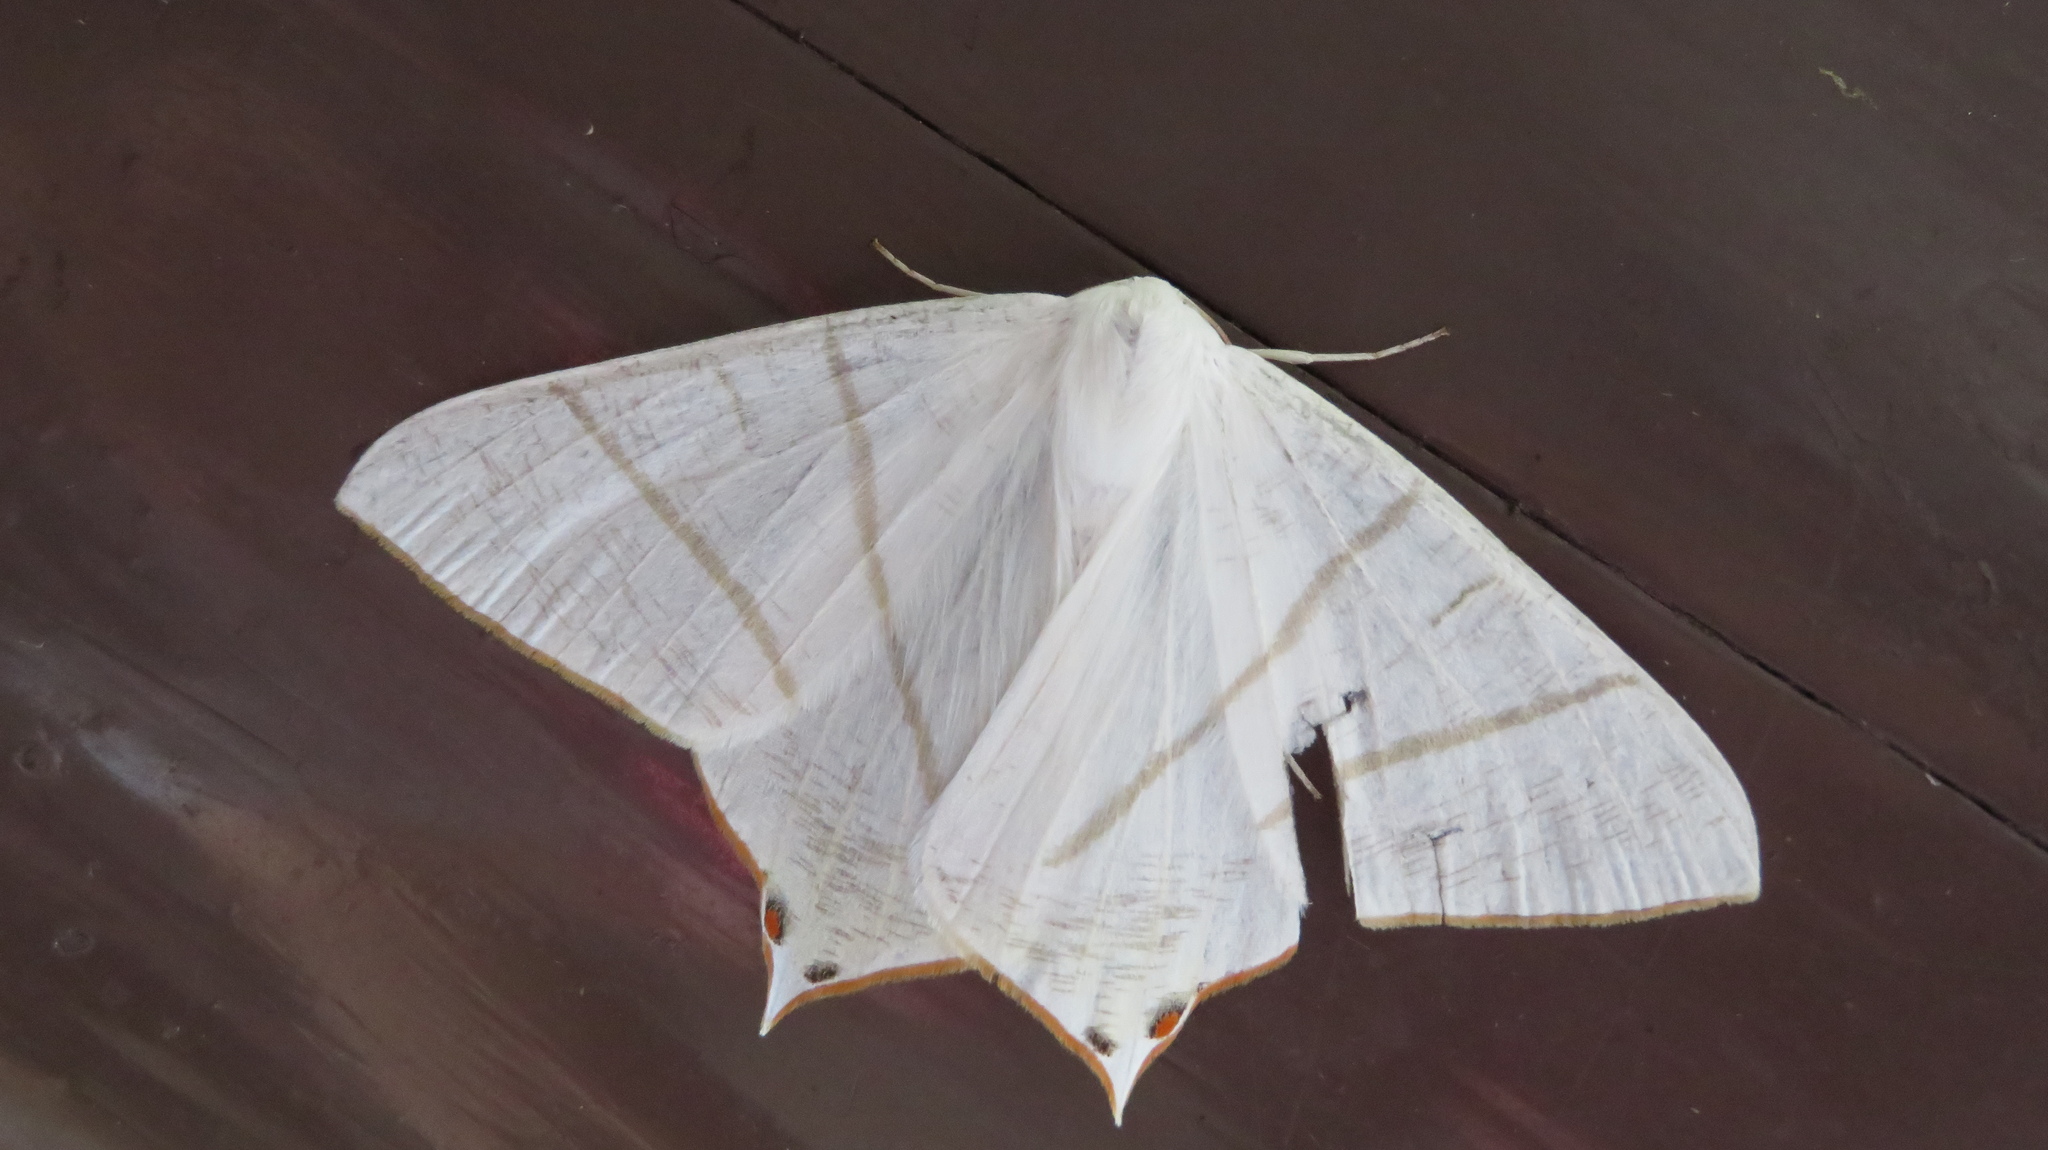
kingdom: Animalia
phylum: Arthropoda
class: Insecta
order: Lepidoptera
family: Geometridae
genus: Ourapteryx
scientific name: Ourapteryx nivea
